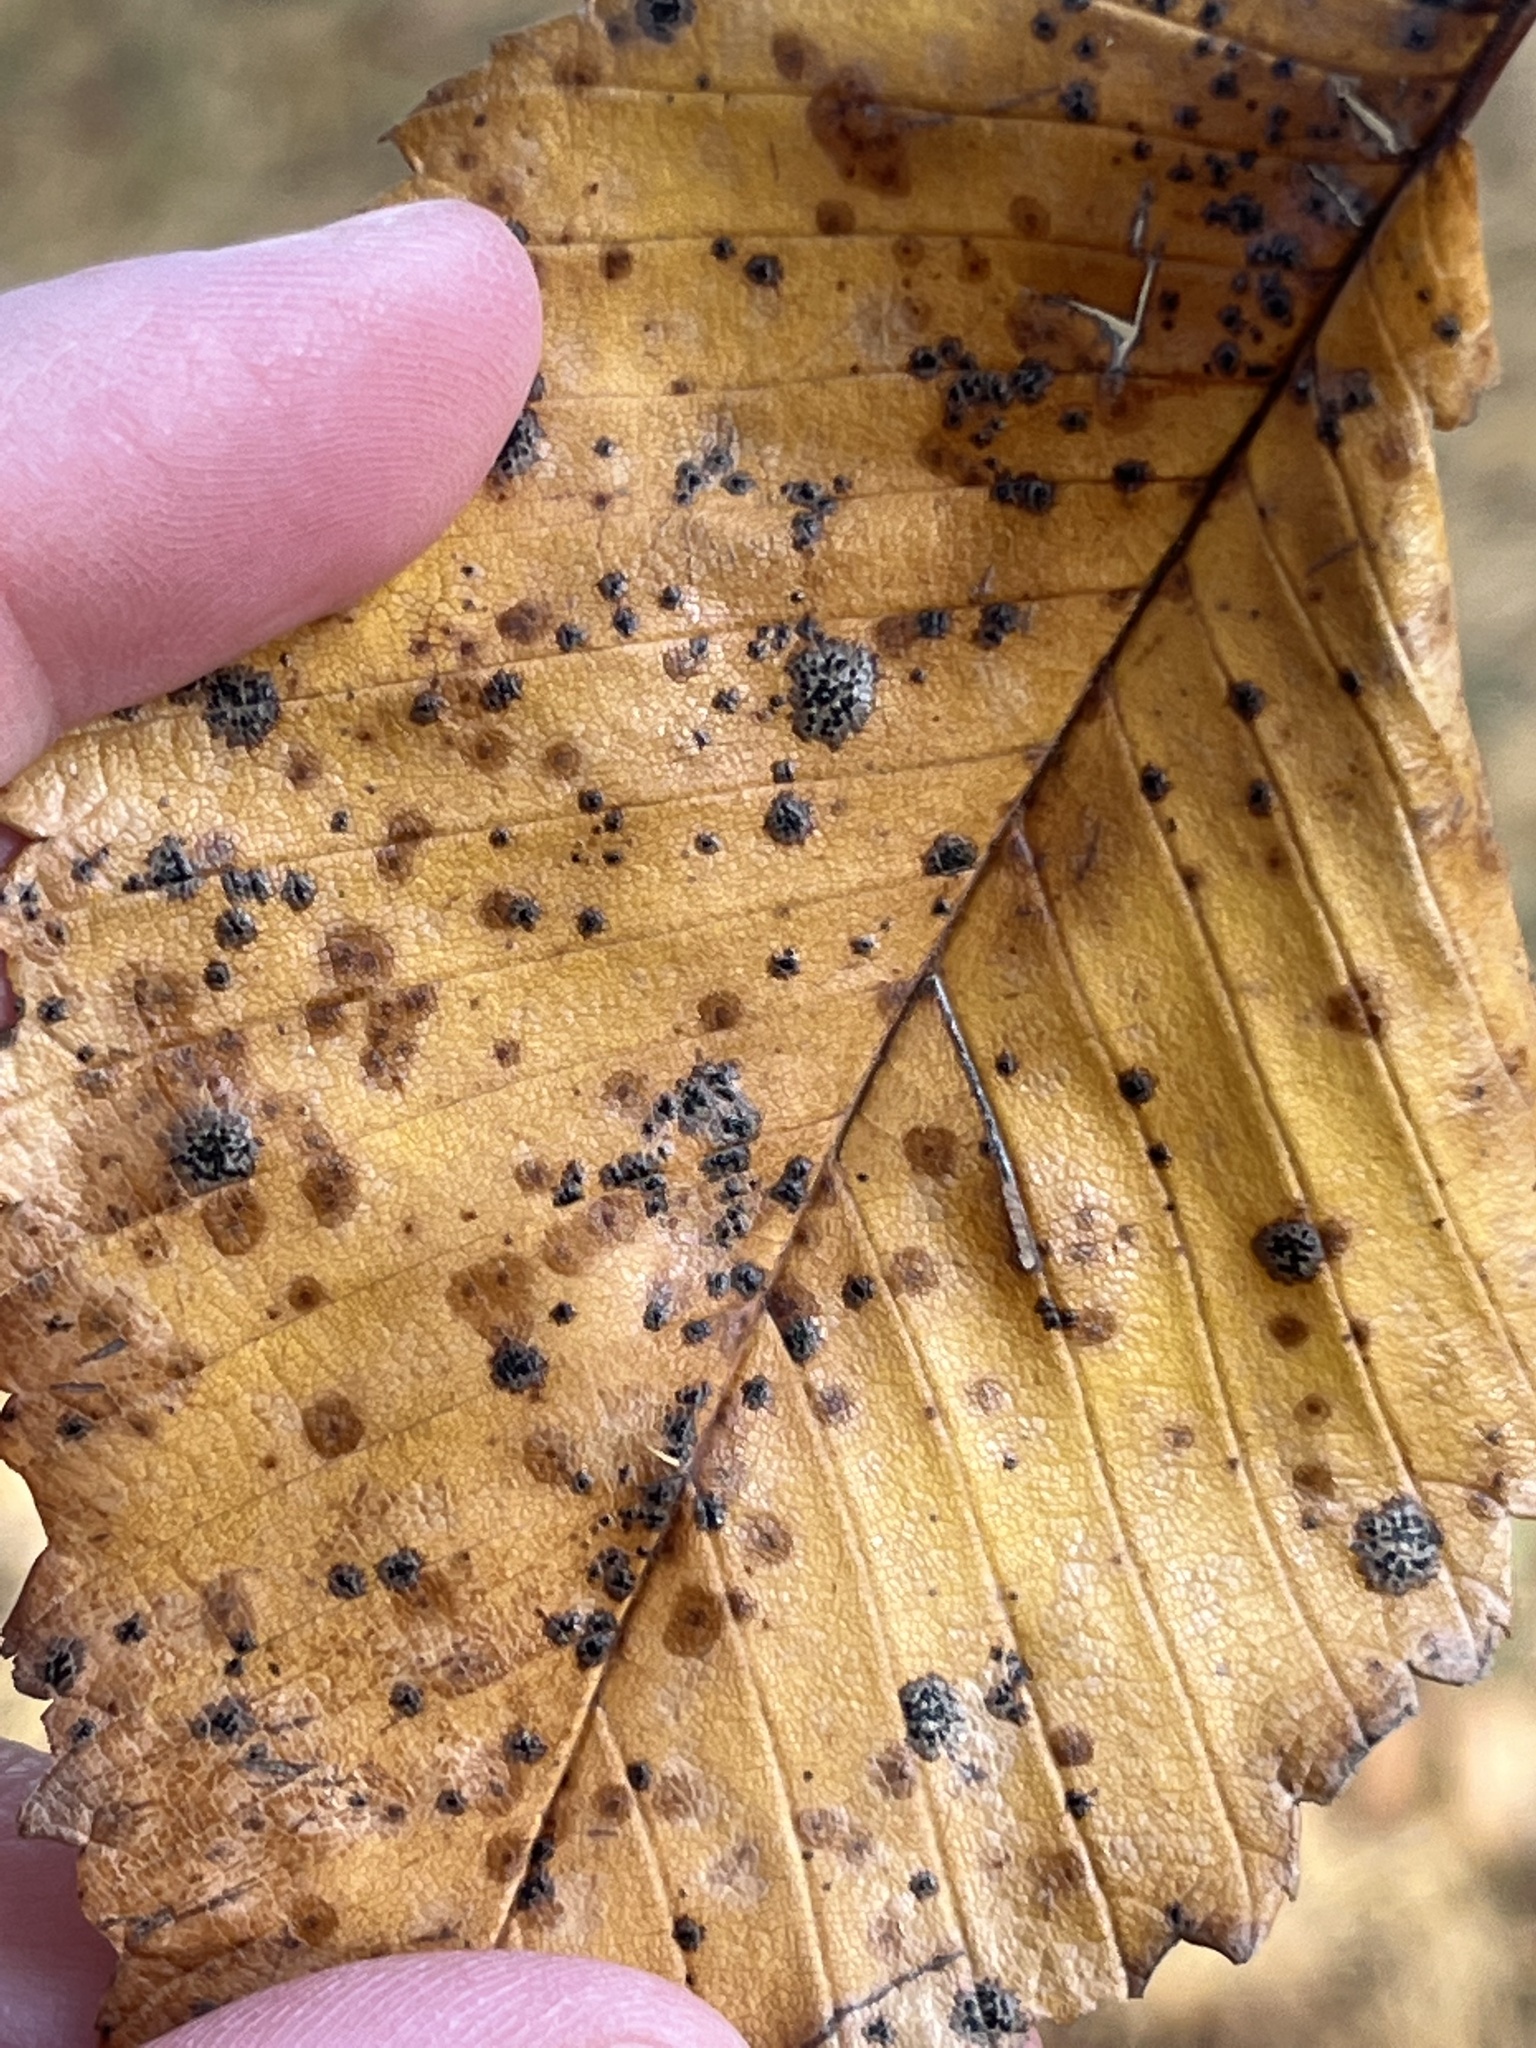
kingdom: Fungi
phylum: Ascomycota
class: Sordariomycetes
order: Diaporthales
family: Sydowiellaceae
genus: Stegophora
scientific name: Stegophora ulmea
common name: Black spot of elm
